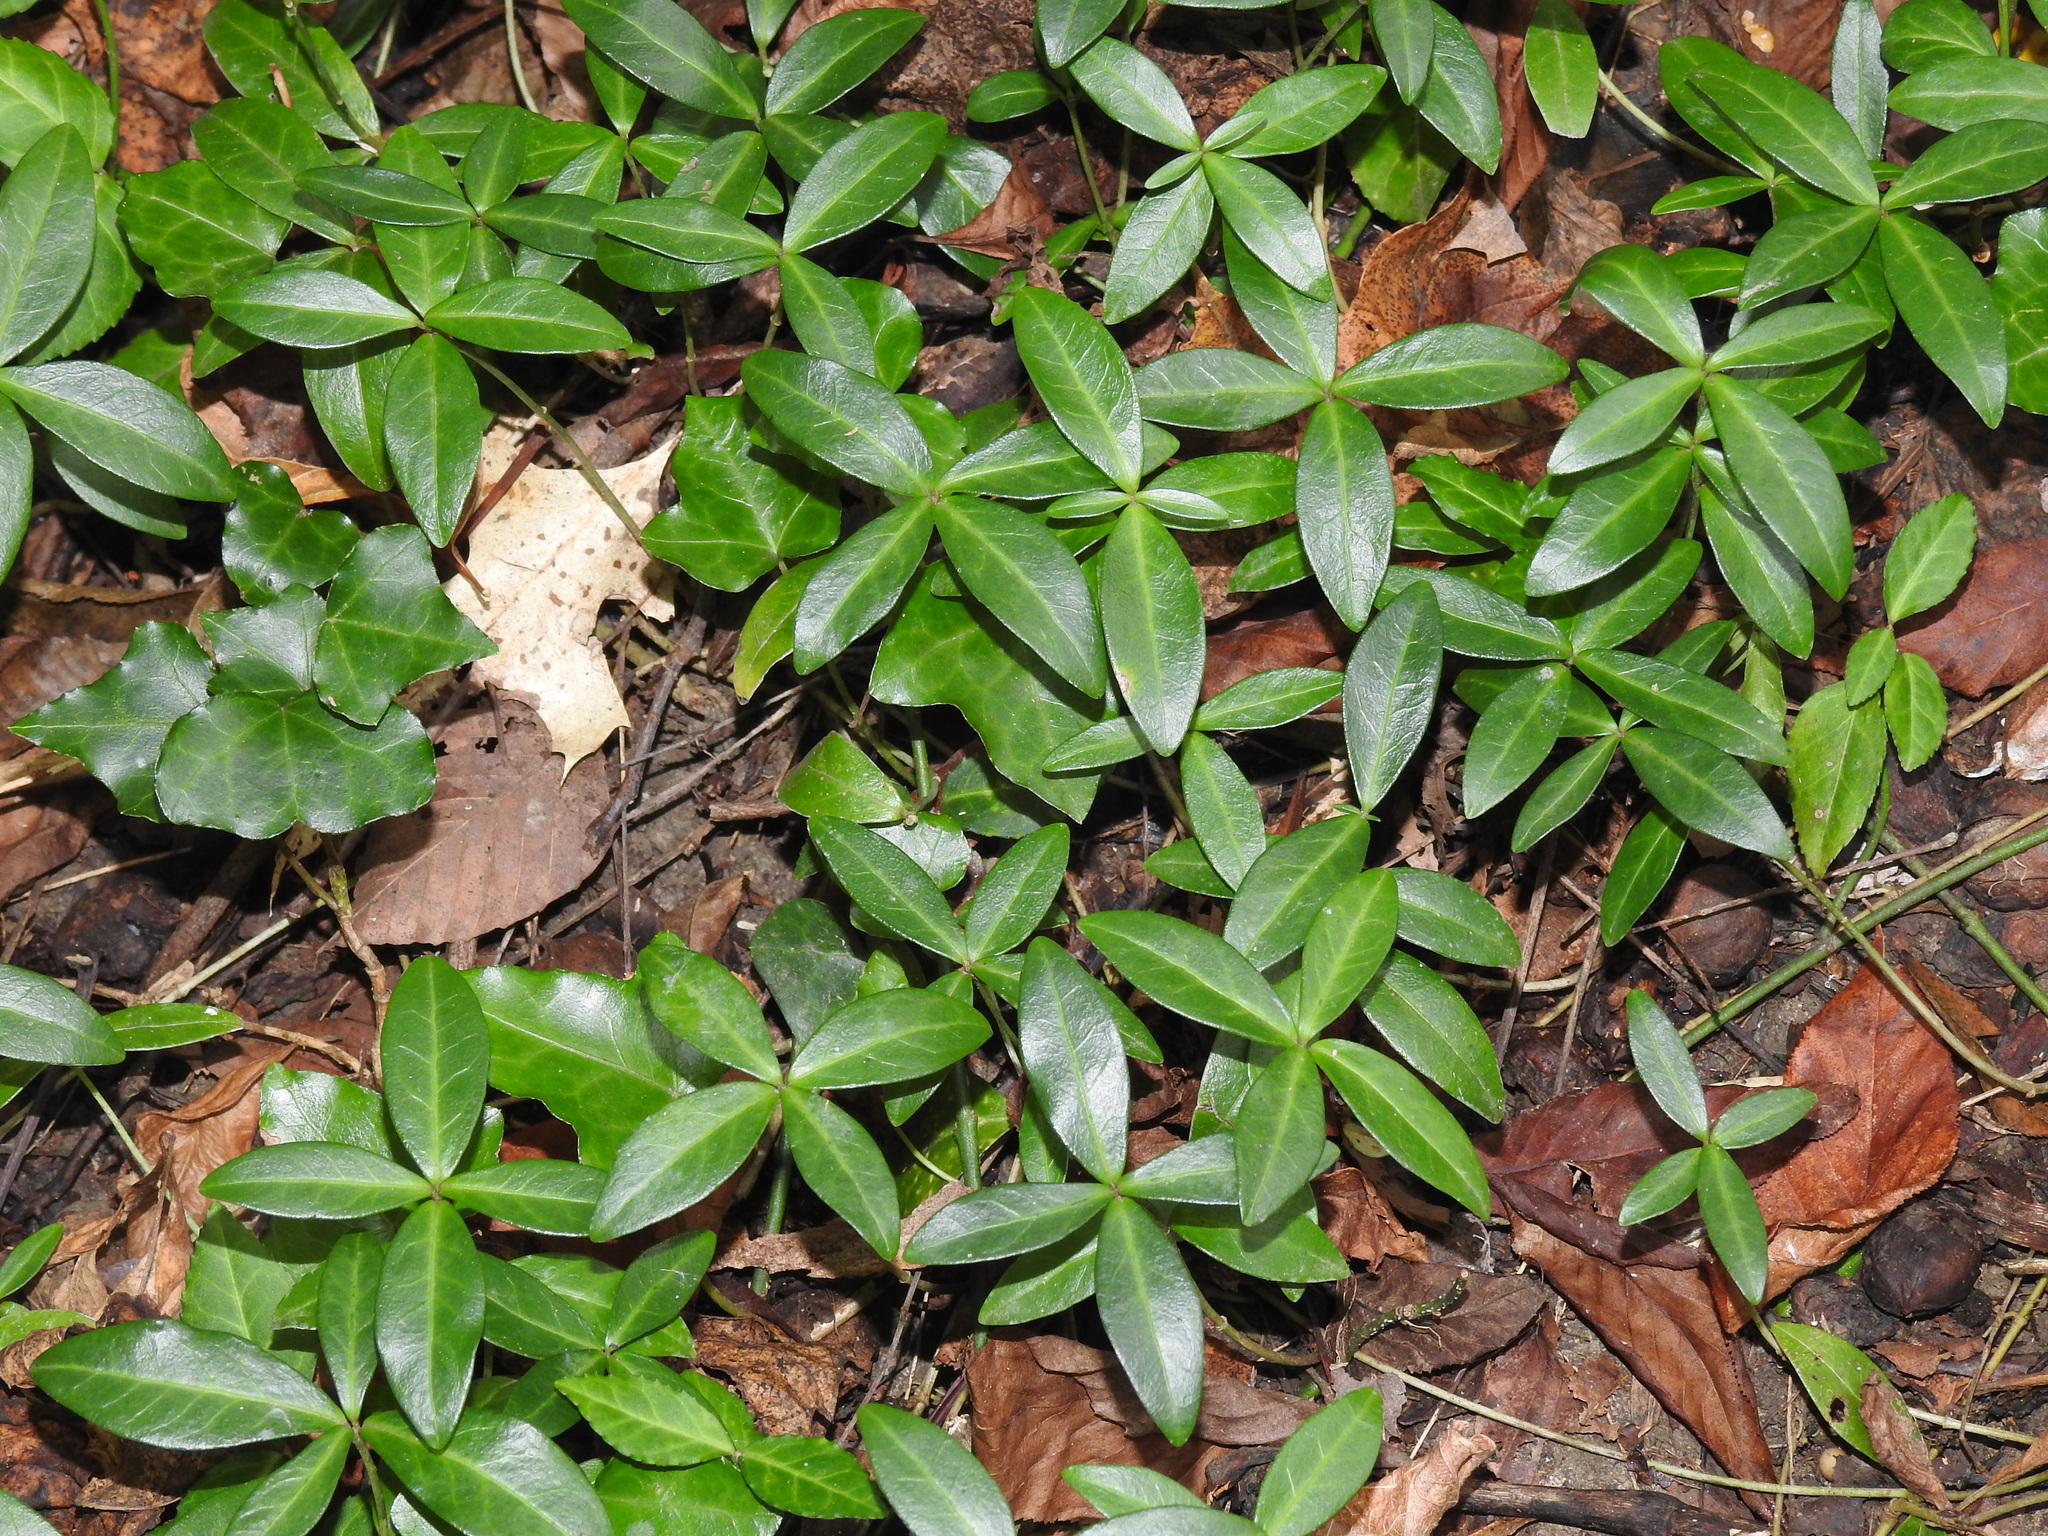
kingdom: Plantae
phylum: Tracheophyta
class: Magnoliopsida
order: Gentianales
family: Apocynaceae
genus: Vinca
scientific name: Vinca minor
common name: Lesser periwinkle
